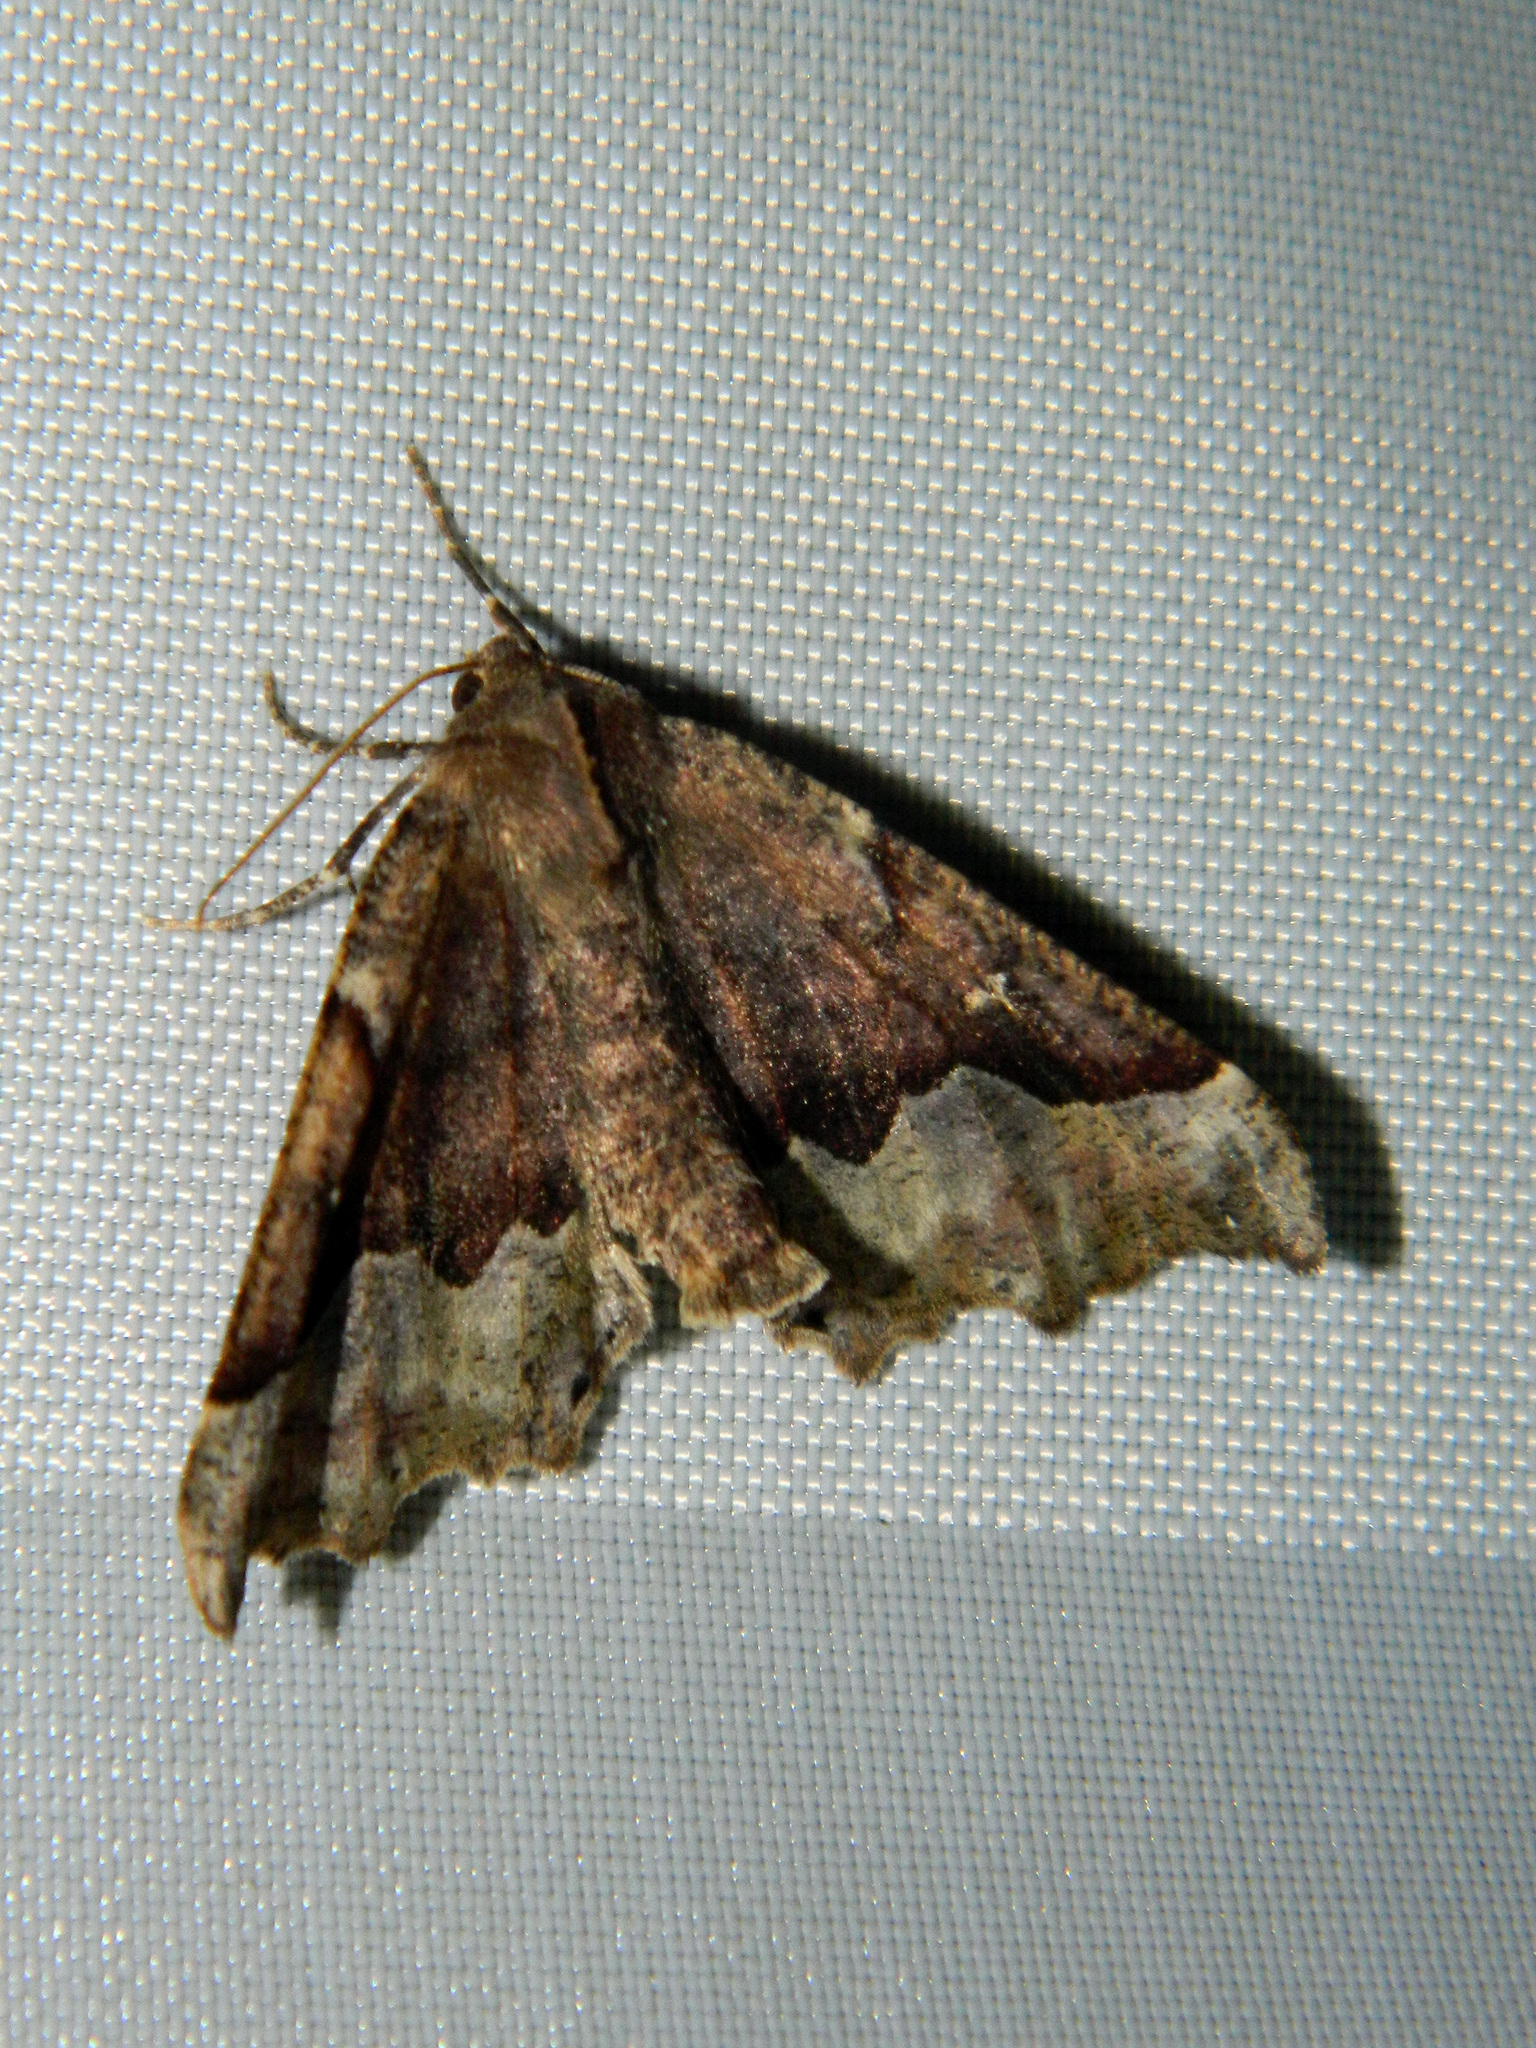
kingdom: Animalia
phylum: Arthropoda
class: Insecta
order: Lepidoptera
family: Geometridae
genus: Pero
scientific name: Pero morrisonaria
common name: Morrison's pero
